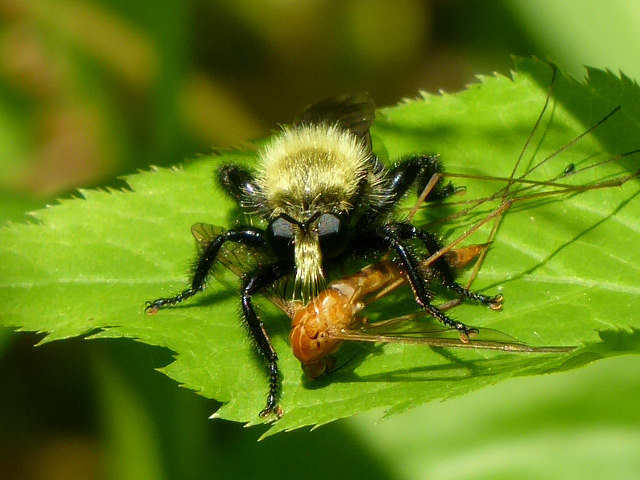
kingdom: Animalia
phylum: Arthropoda
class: Insecta
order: Diptera
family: Asilidae
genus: Laphria
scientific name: Laphria flavicollis
